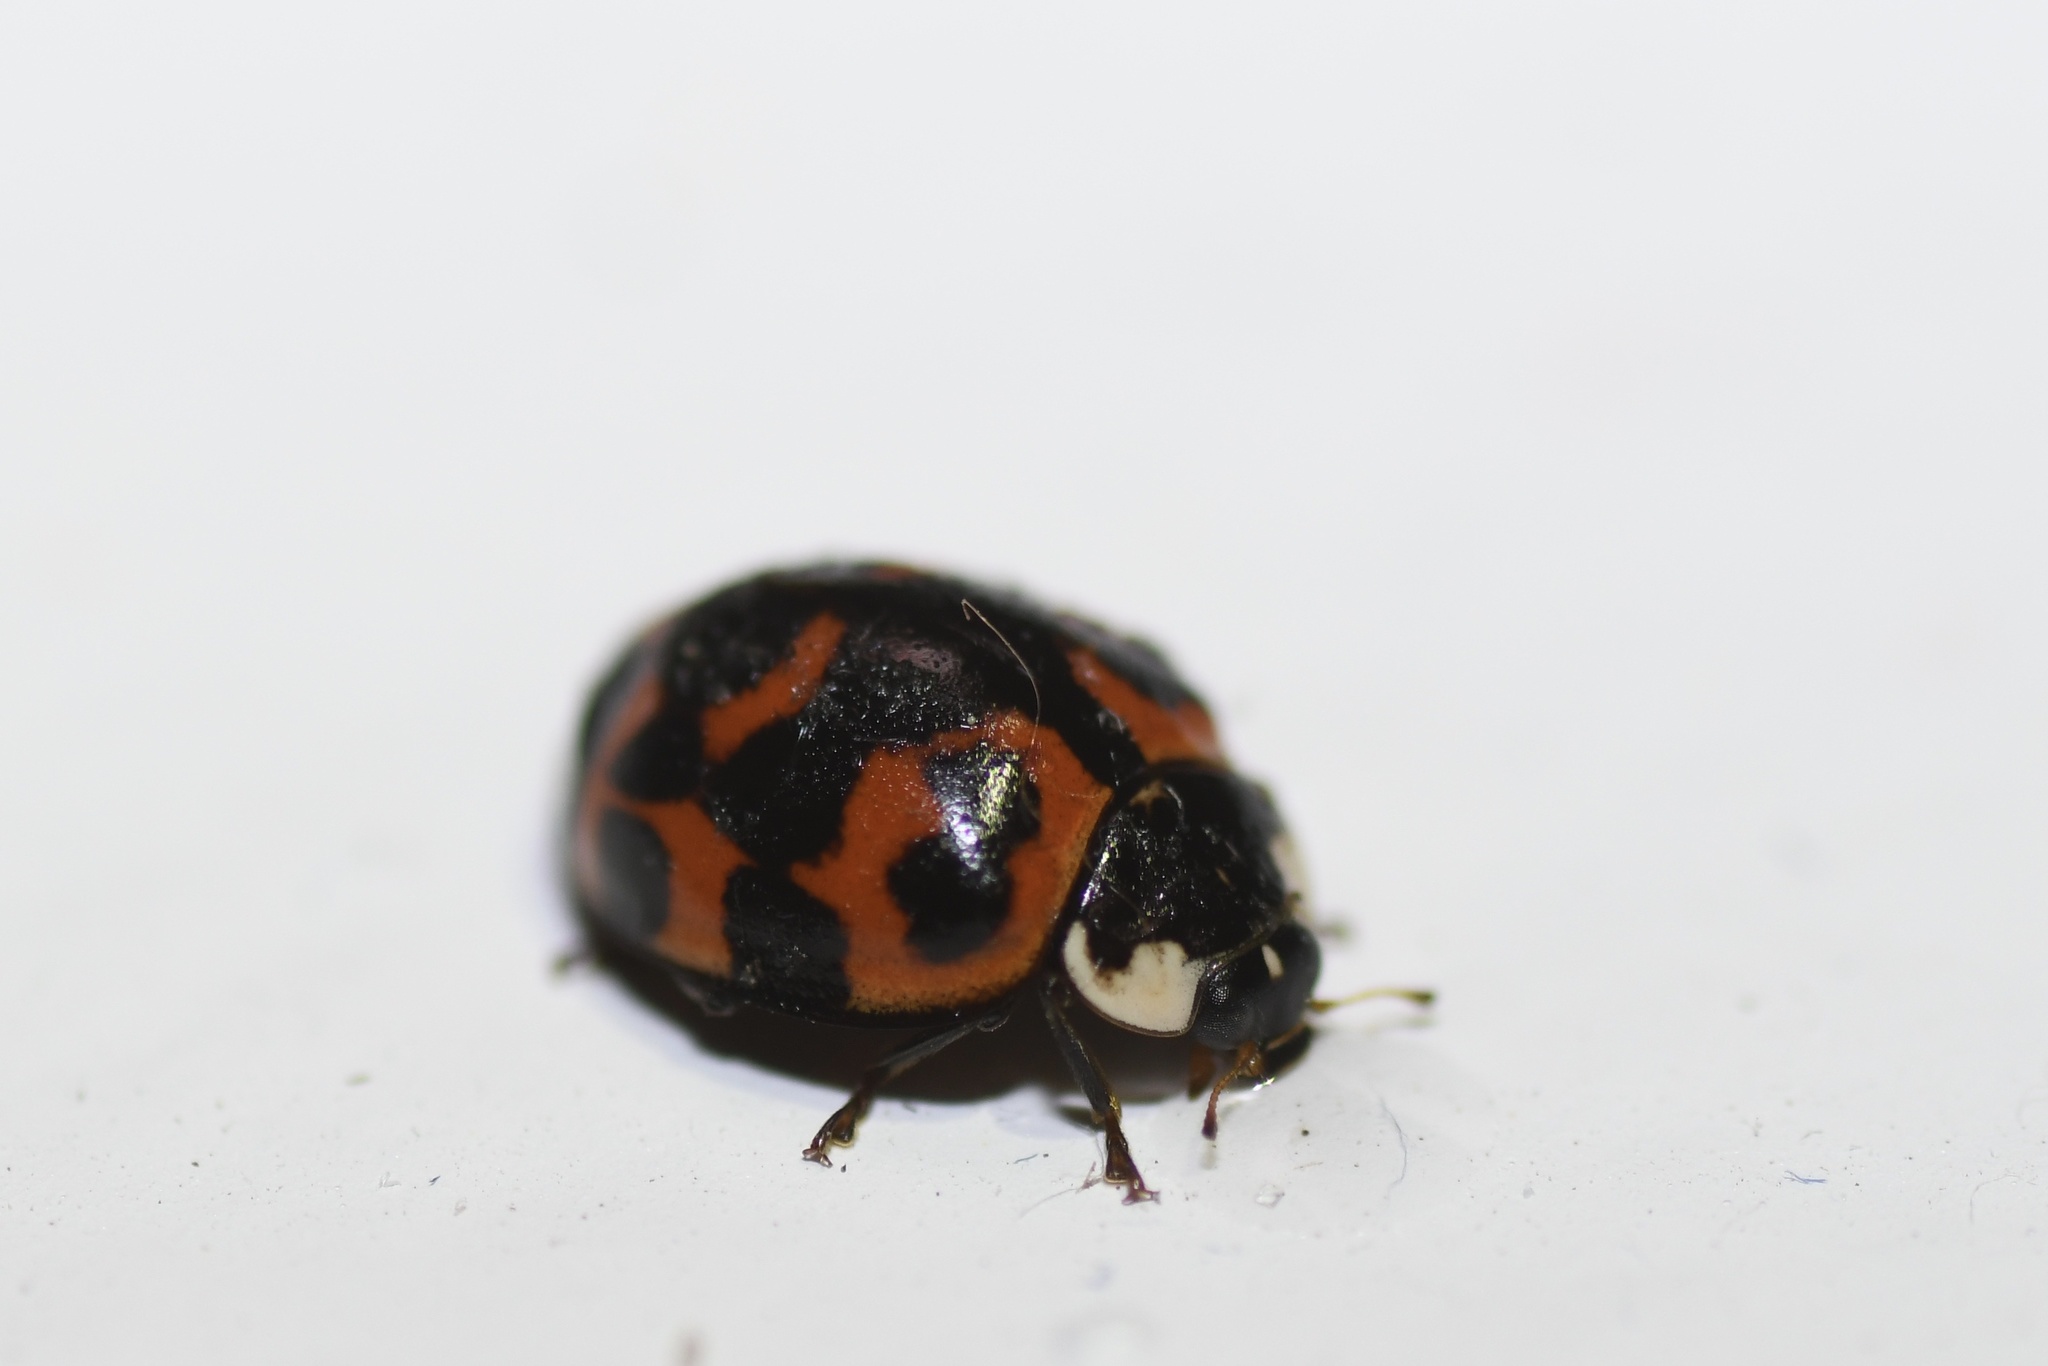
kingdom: Animalia
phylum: Arthropoda
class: Insecta
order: Coleoptera
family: Coccinellidae
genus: Harmonia
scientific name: Harmonia axyridis
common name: Harlequin ladybird
